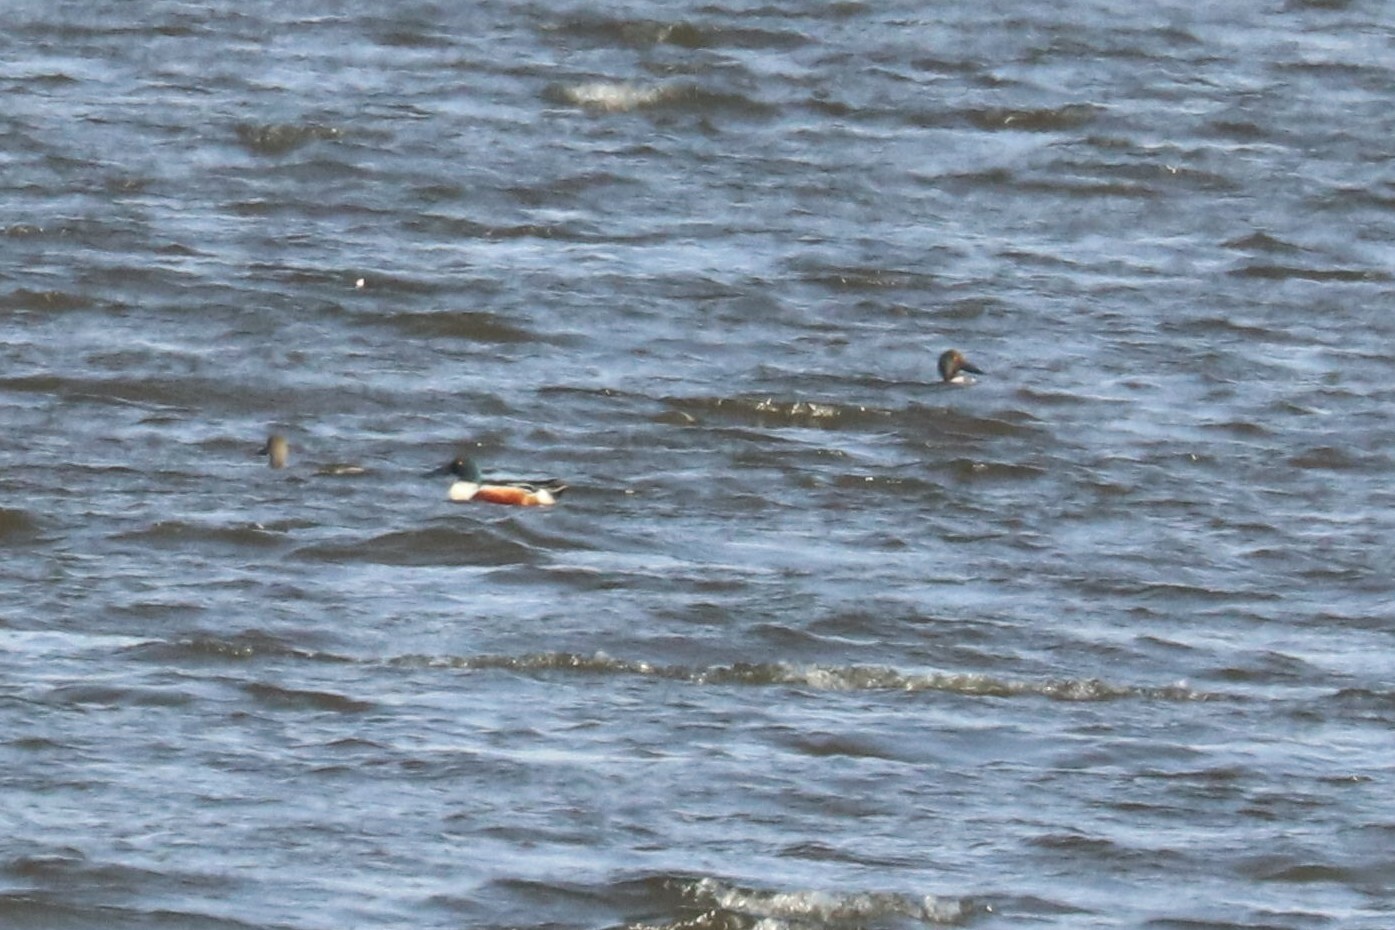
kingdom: Animalia
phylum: Chordata
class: Aves
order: Anseriformes
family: Anatidae
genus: Spatula
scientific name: Spatula clypeata
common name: Northern shoveler
